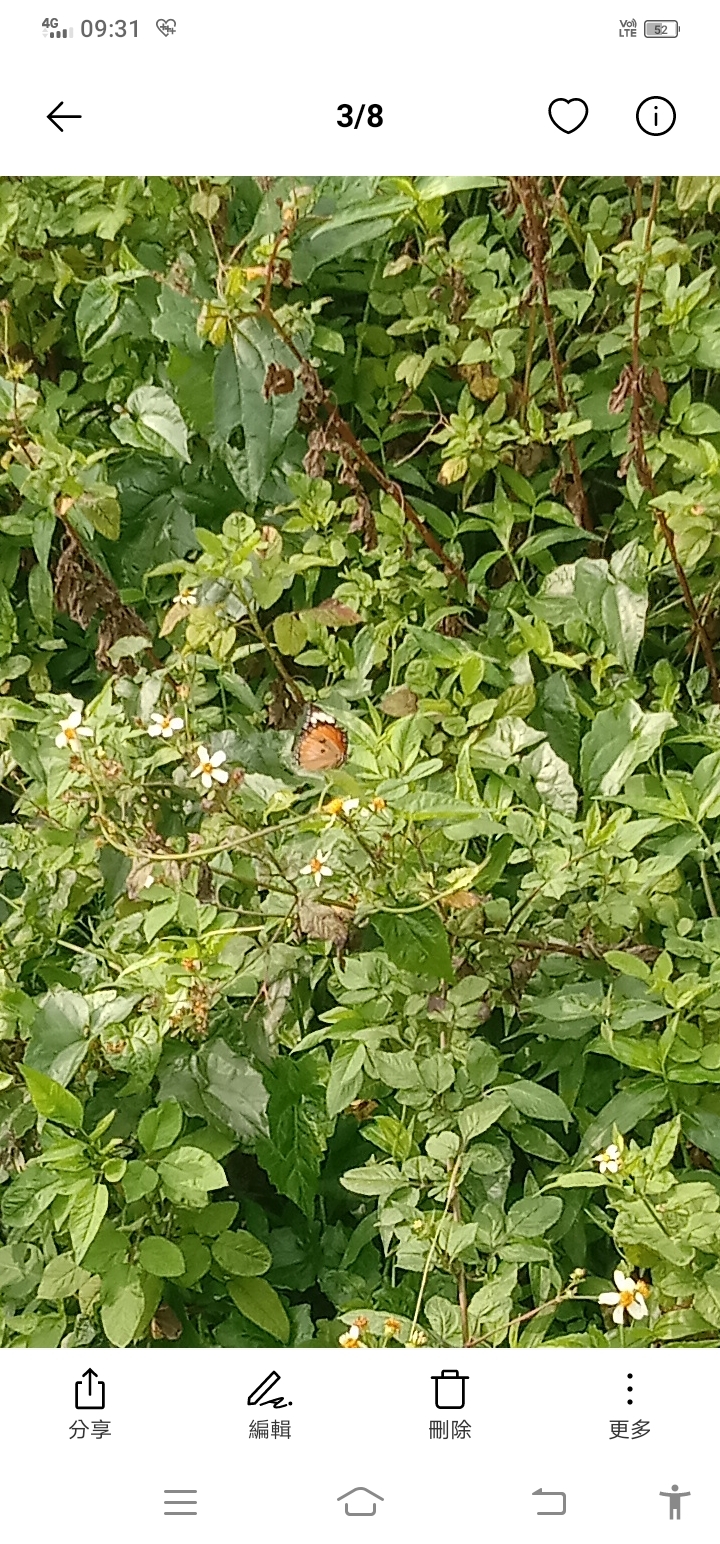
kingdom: Animalia
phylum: Arthropoda
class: Insecta
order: Lepidoptera
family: Nymphalidae
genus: Danaus
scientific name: Danaus chrysippus
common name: Plain tiger
